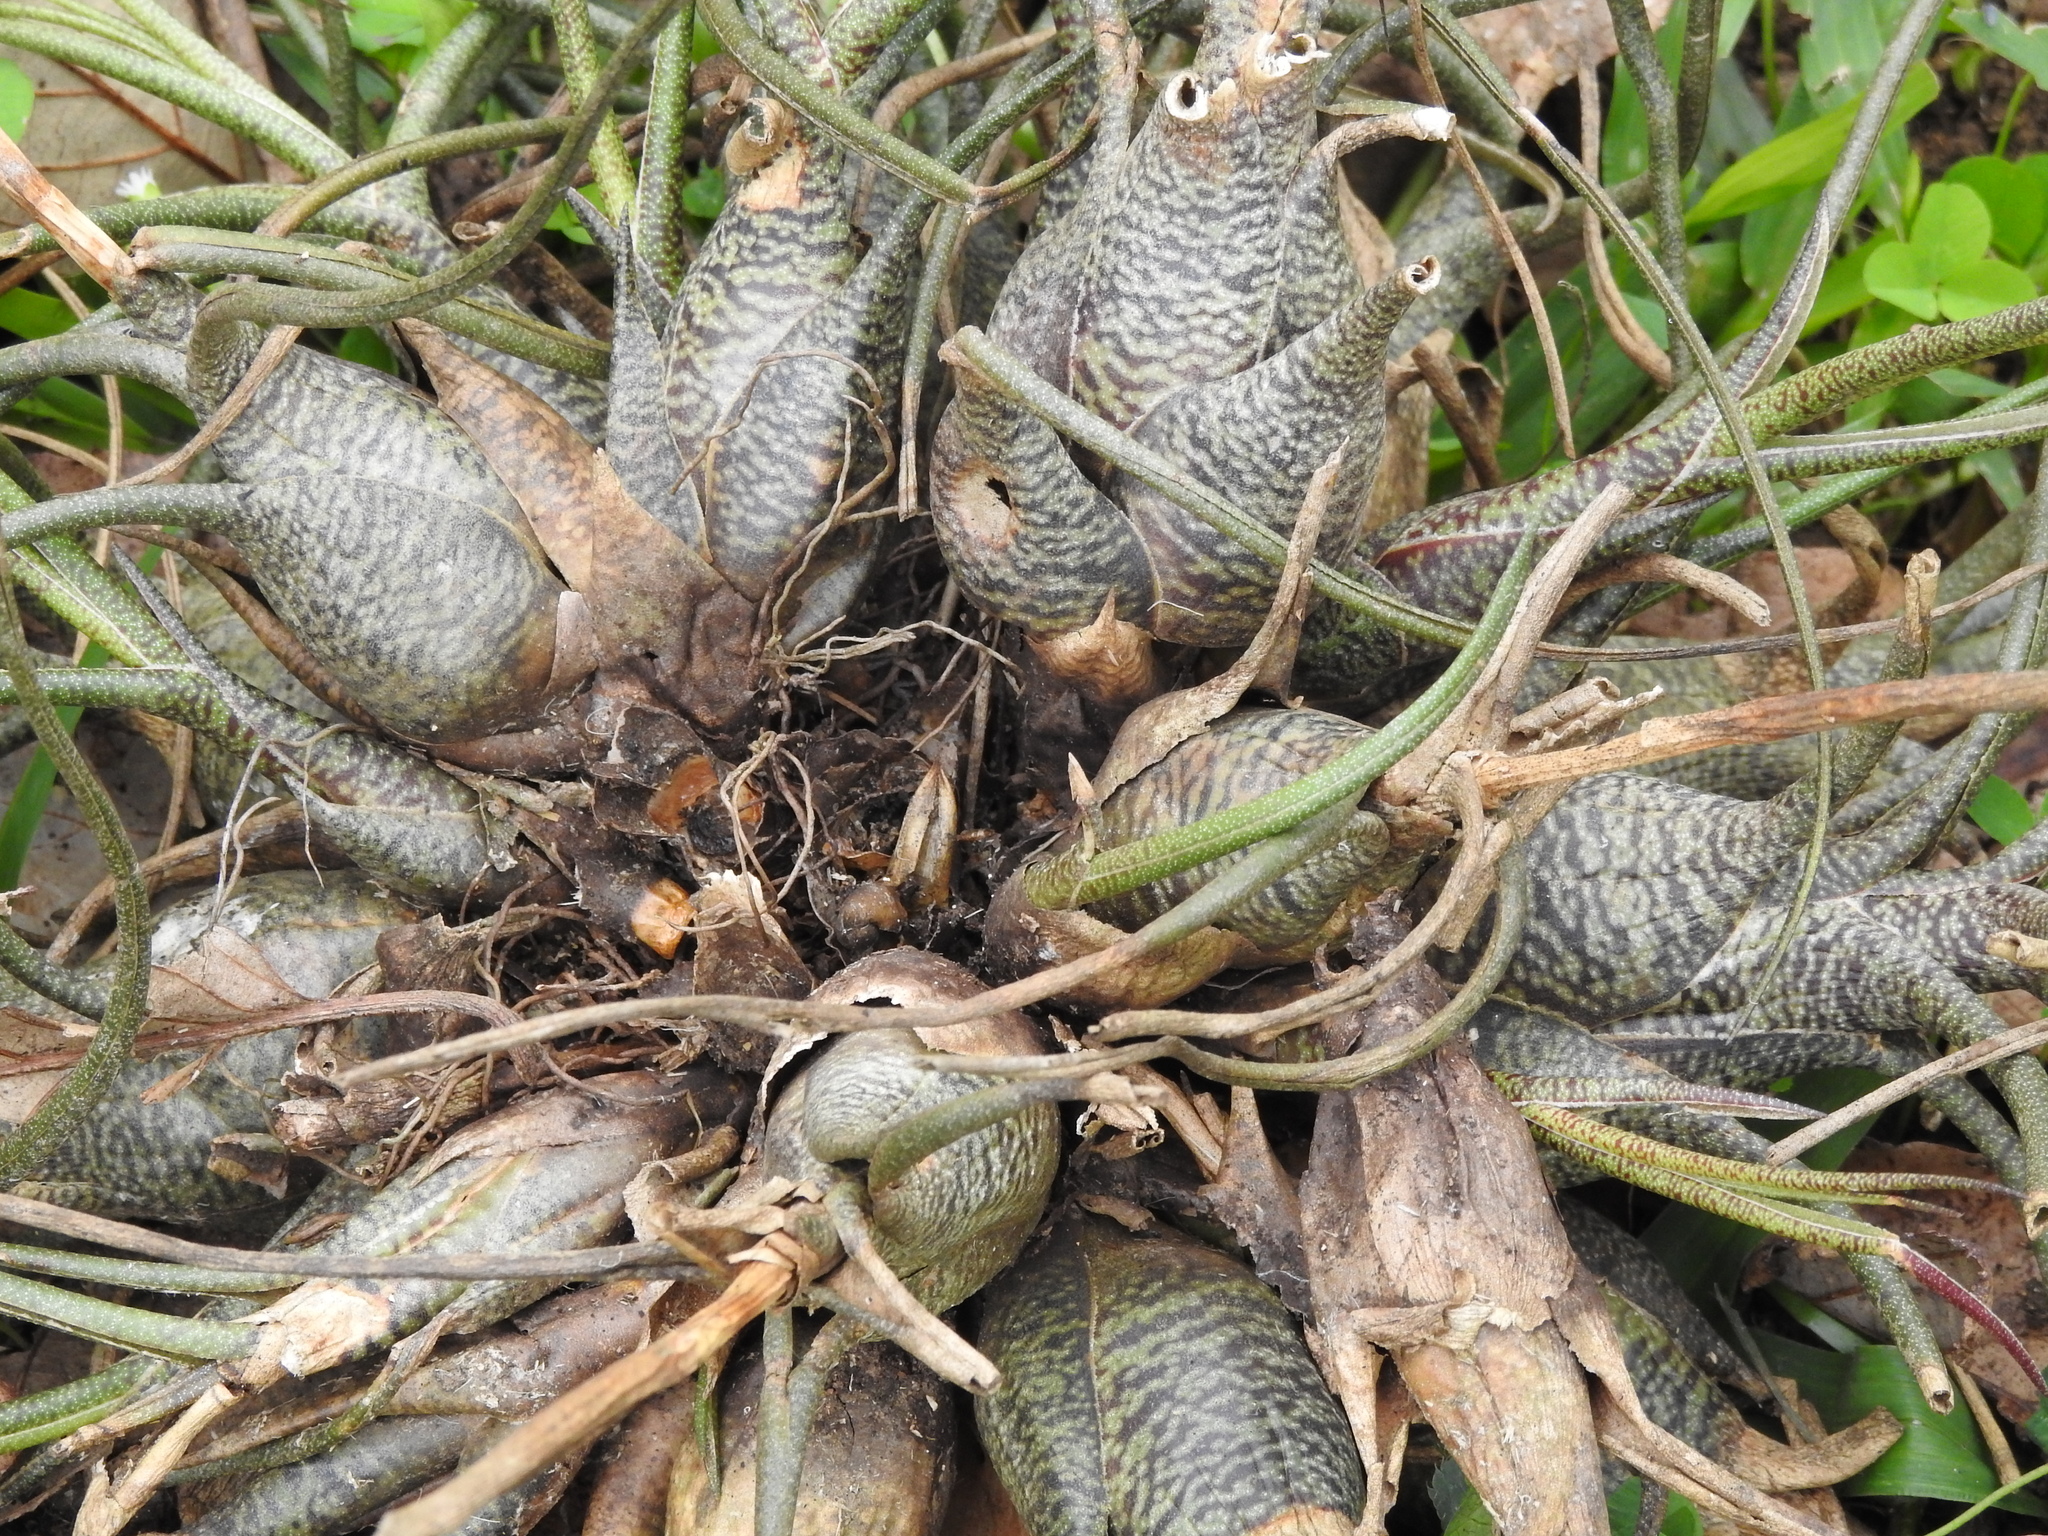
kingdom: Plantae
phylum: Tracheophyta
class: Liliopsida
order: Poales
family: Bromeliaceae
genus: Tillandsia
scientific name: Tillandsia butzii
